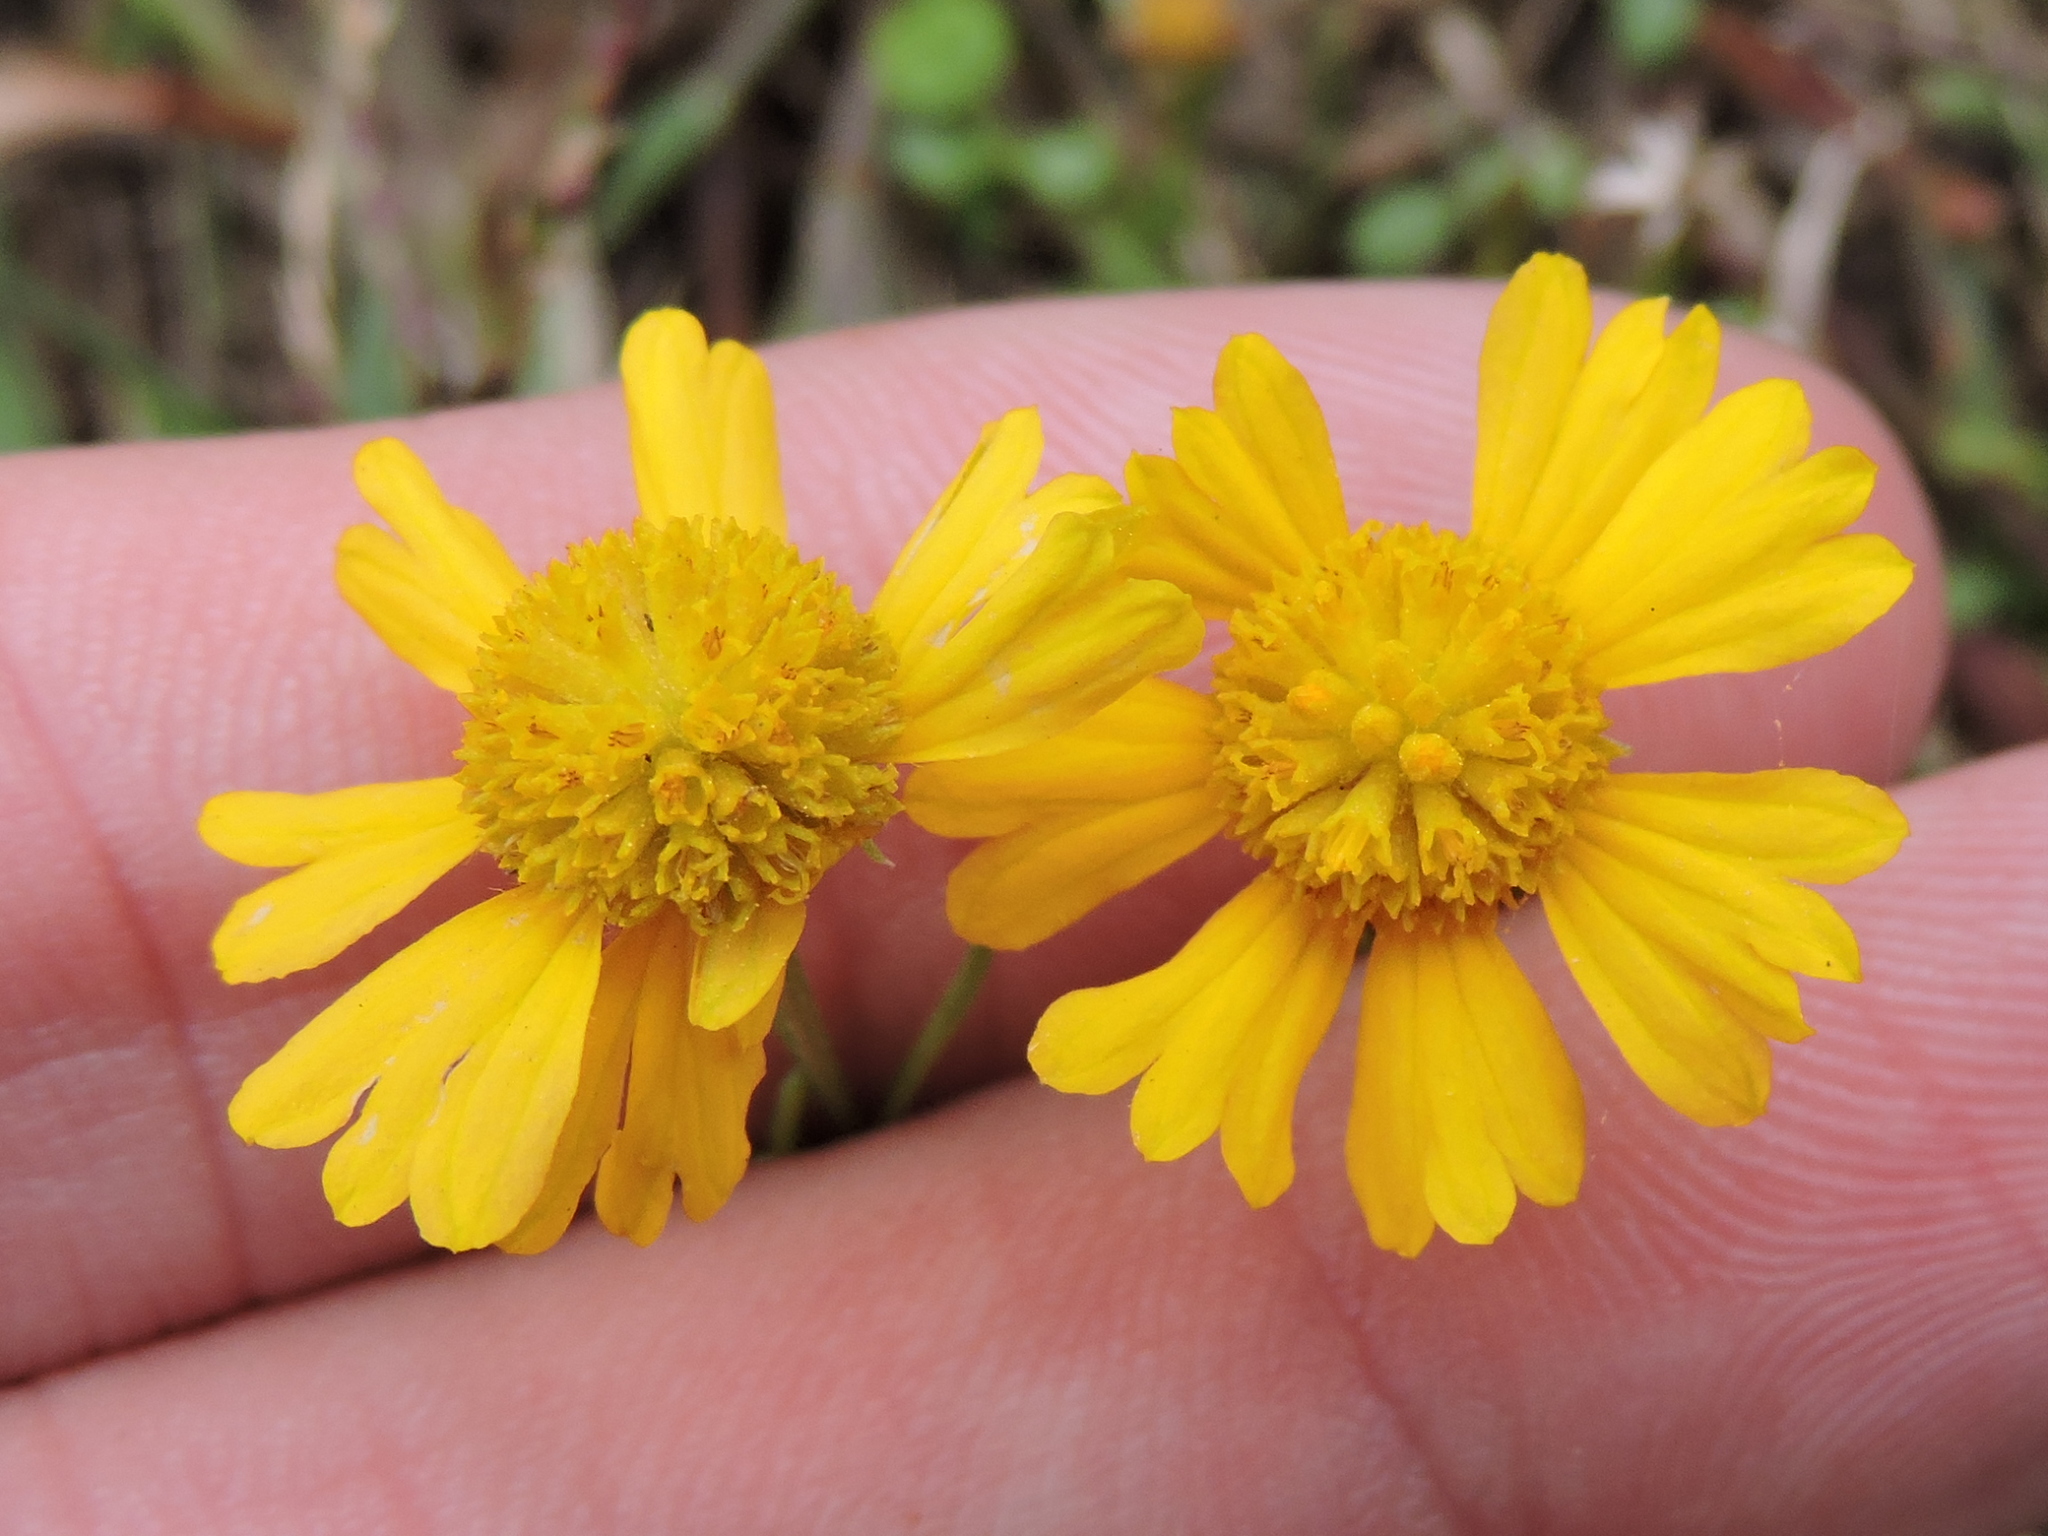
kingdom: Plantae
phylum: Tracheophyta
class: Magnoliopsida
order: Asterales
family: Asteraceae
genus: Helenium
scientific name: Helenium amarum
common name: Bitter sneezeweed
